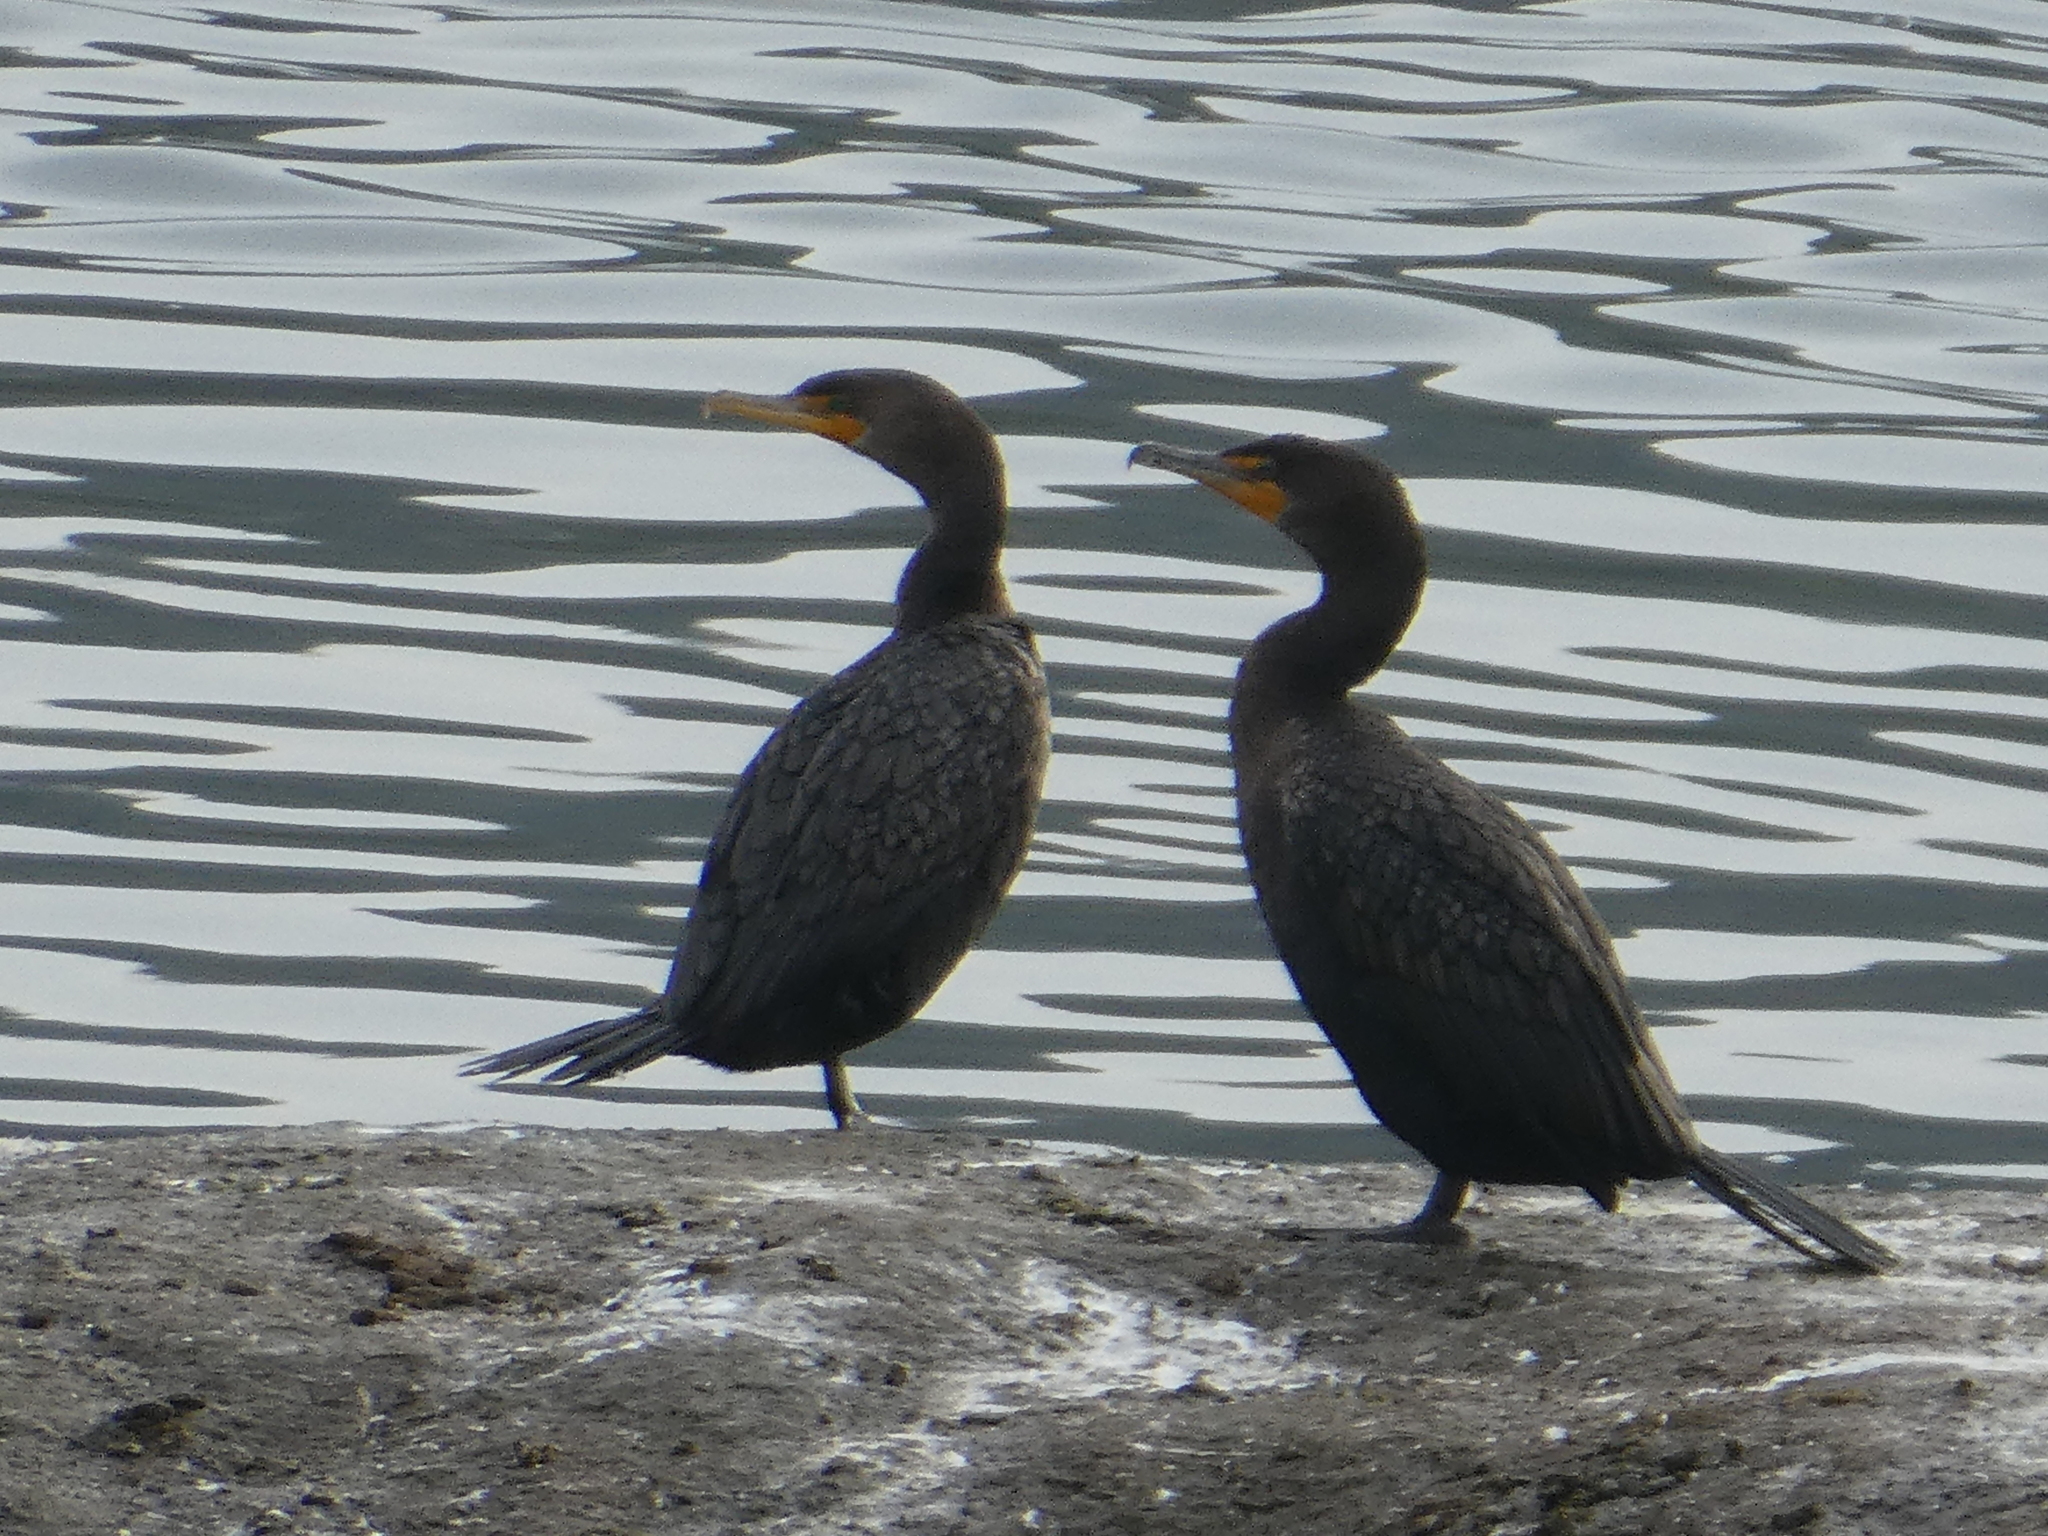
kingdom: Animalia
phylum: Chordata
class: Aves
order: Suliformes
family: Phalacrocoracidae
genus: Phalacrocorax
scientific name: Phalacrocorax auritus
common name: Double-crested cormorant
